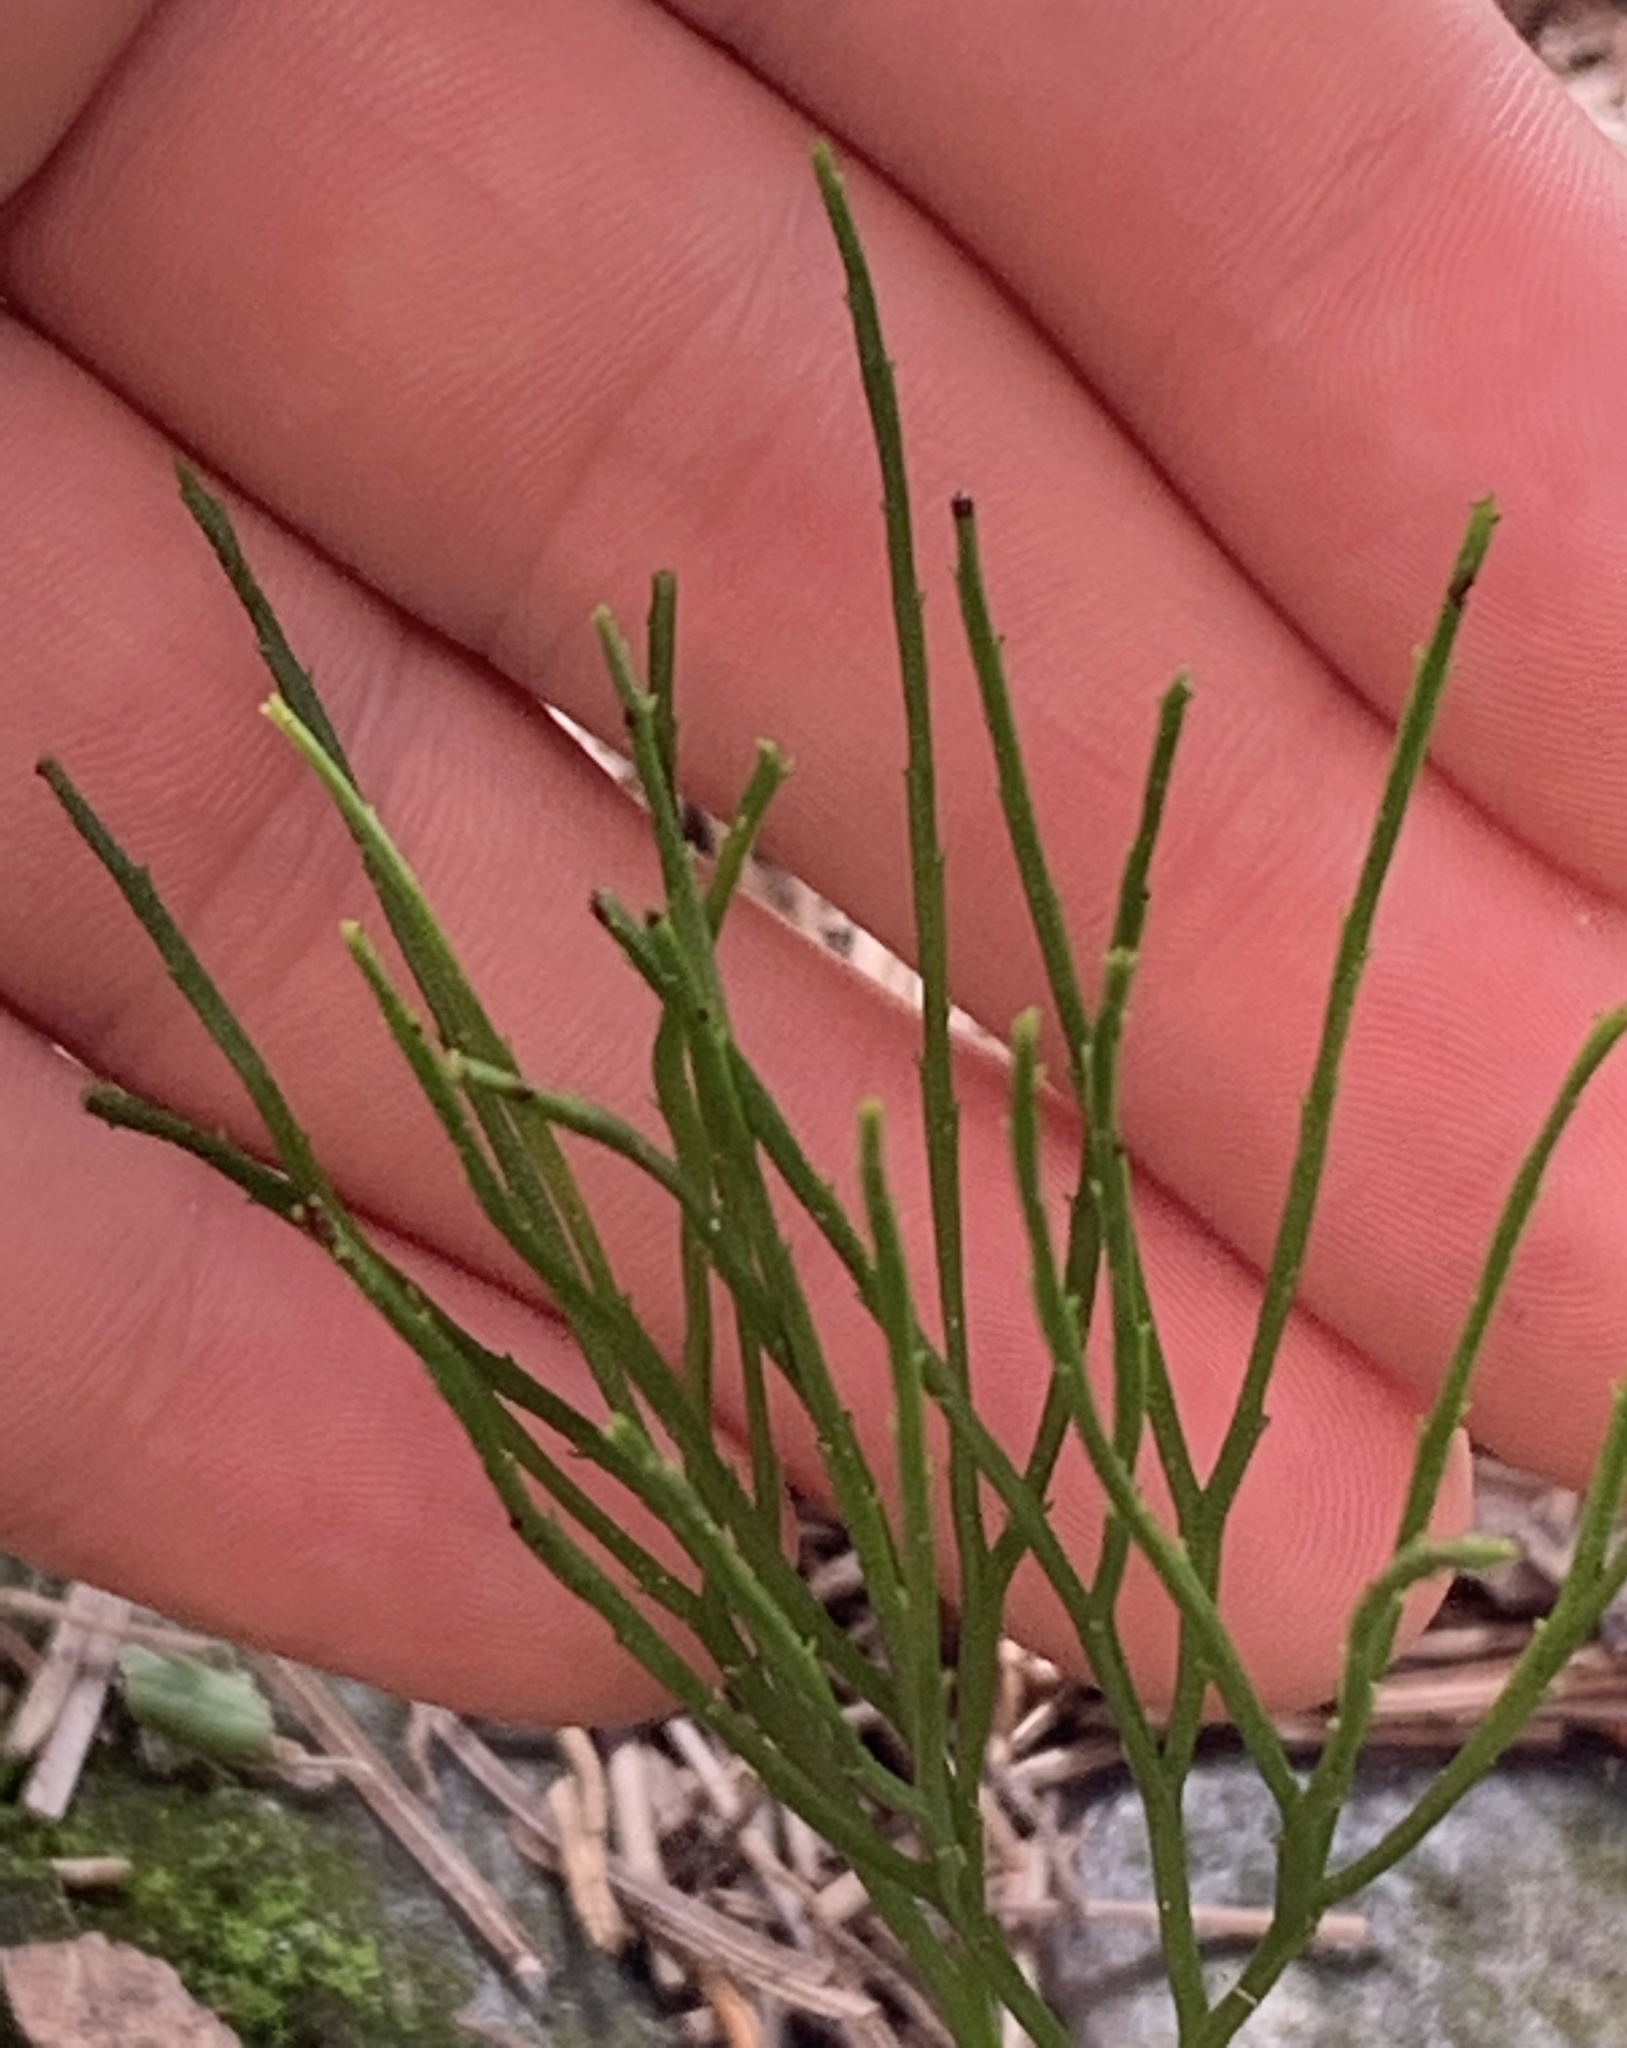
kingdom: Plantae
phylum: Tracheophyta
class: Polypodiopsida
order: Psilotales
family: Psilotaceae
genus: Psilotum
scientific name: Psilotum nudum
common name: Skeleton fork fern
